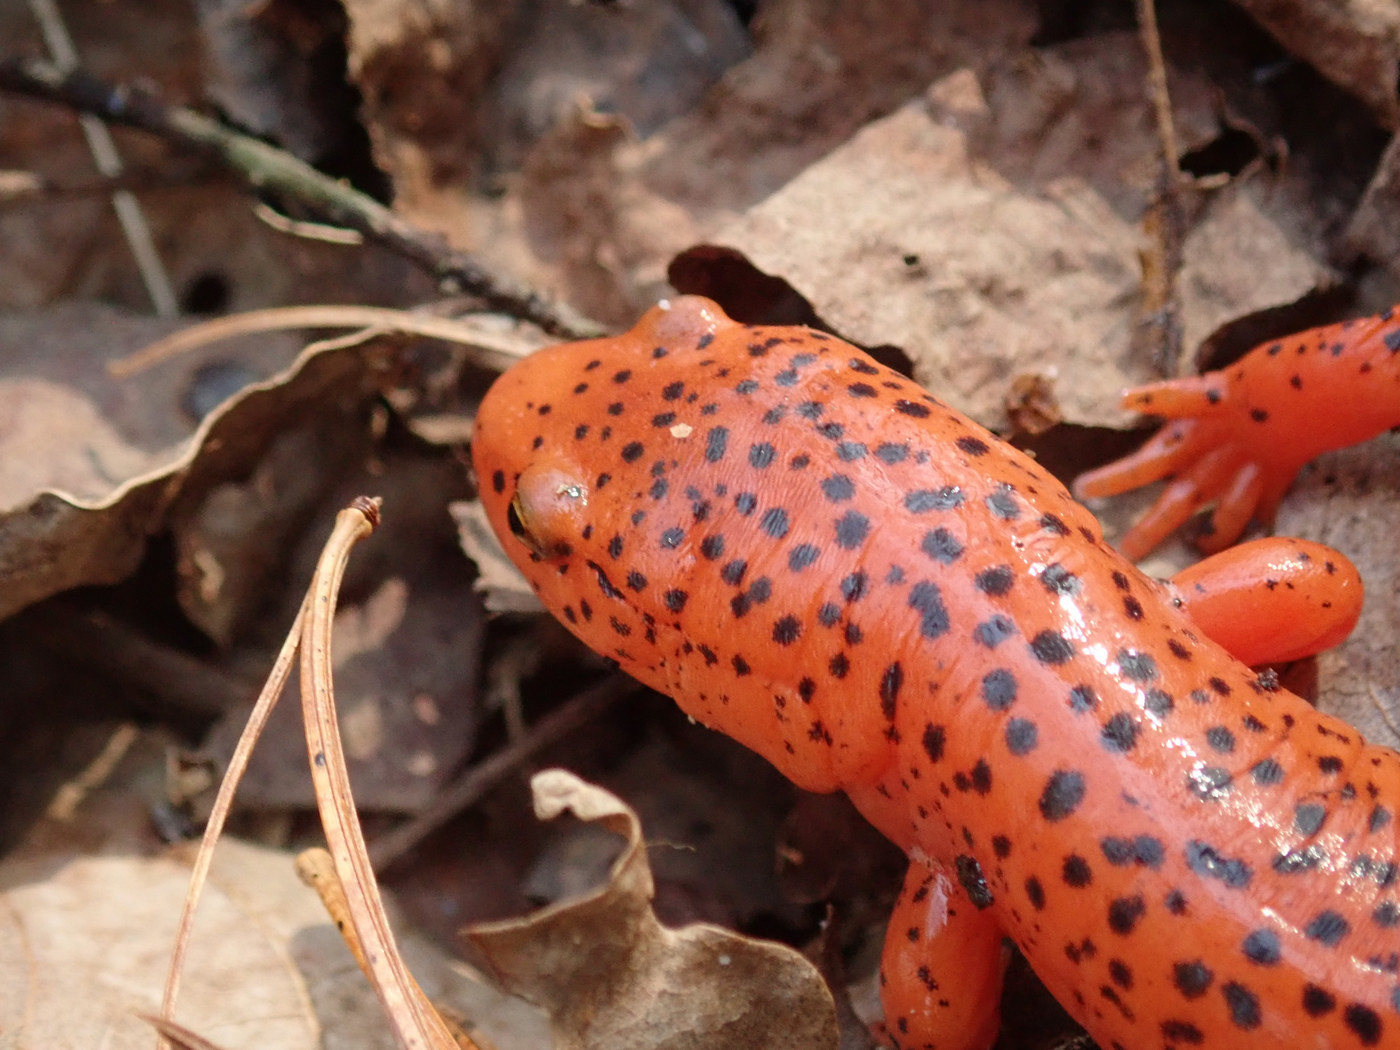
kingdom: Animalia
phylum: Chordata
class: Amphibia
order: Caudata
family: Plethodontidae
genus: Pseudotriton
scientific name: Pseudotriton ruber
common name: Red salamander
